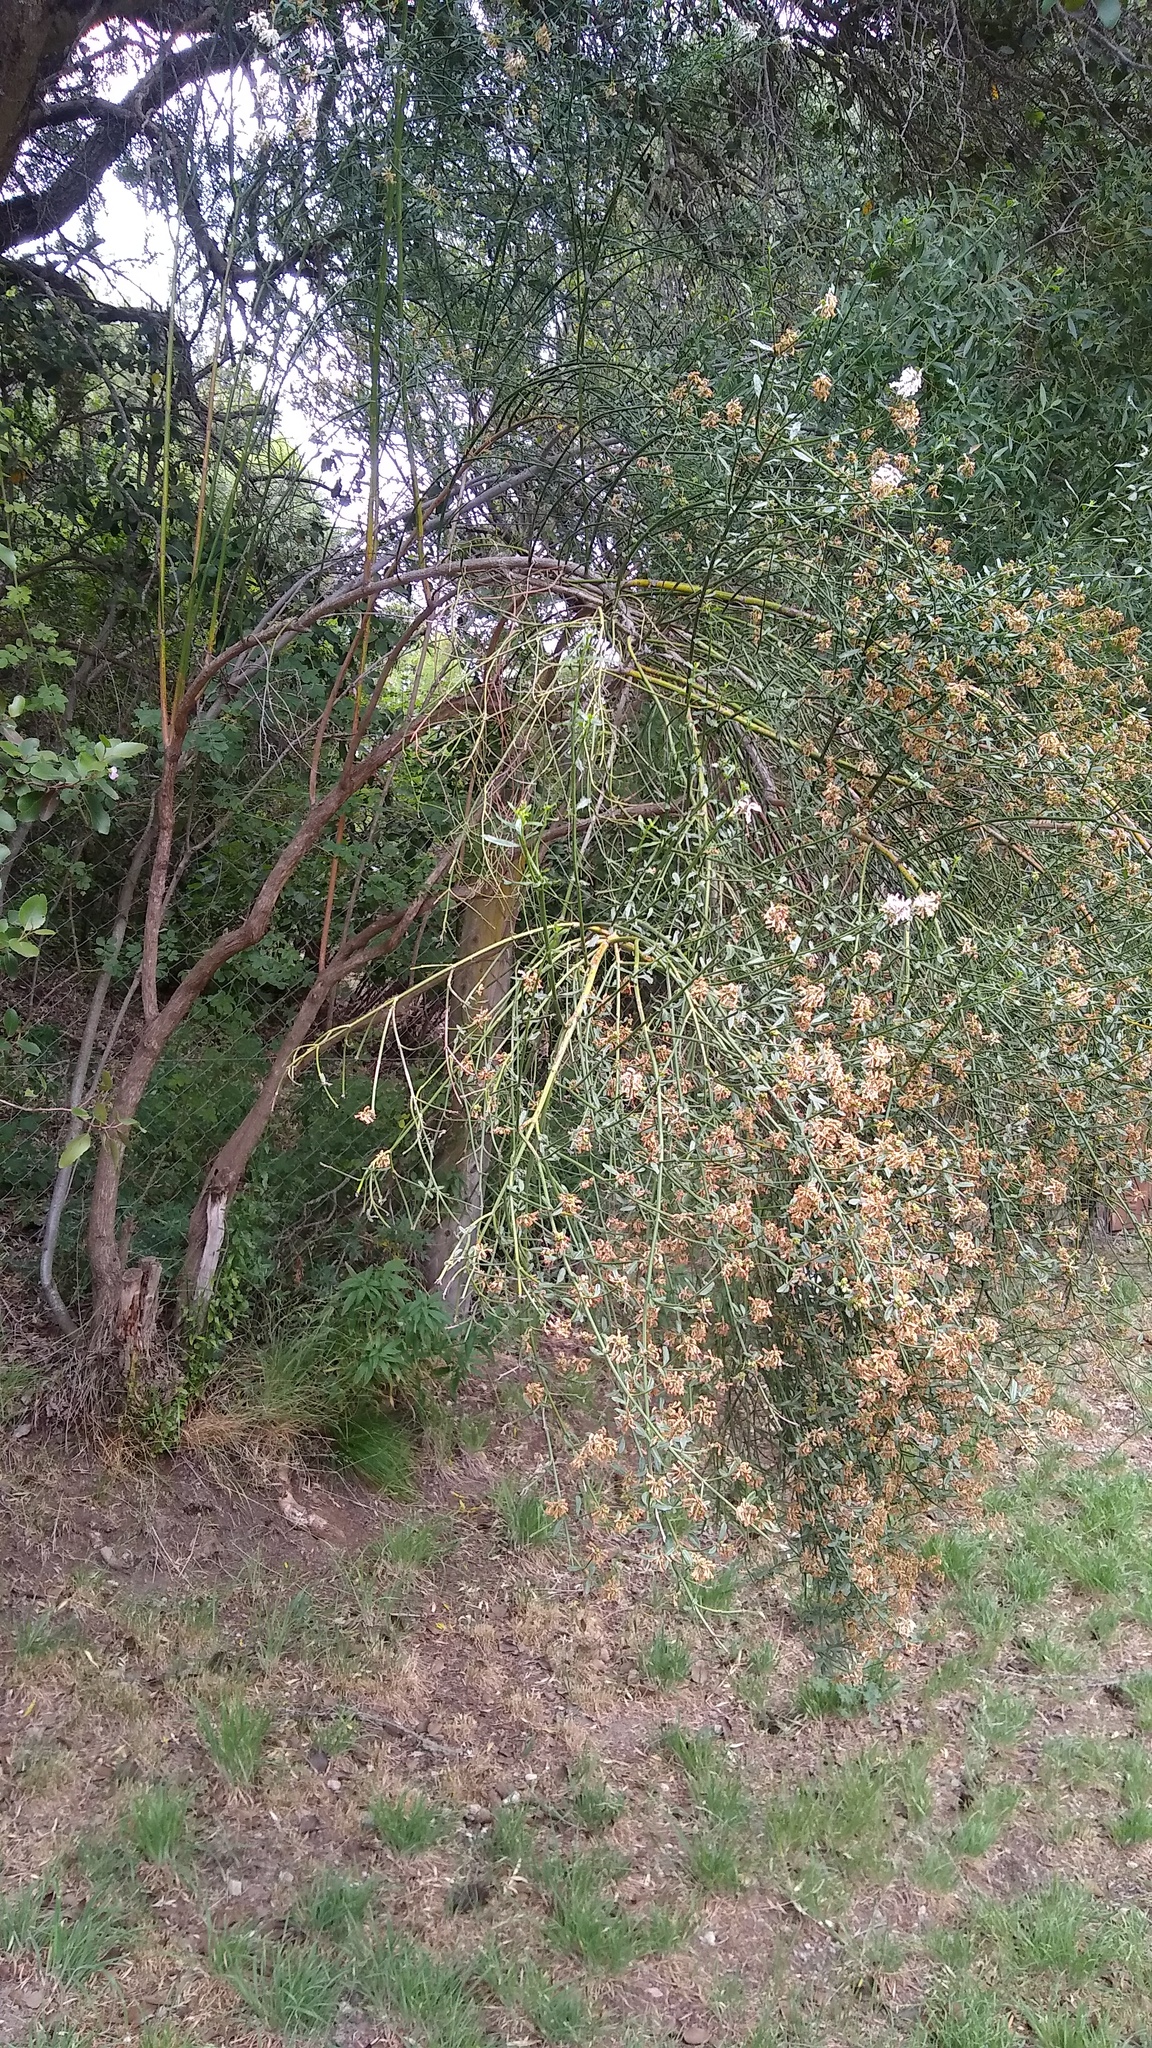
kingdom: Plantae
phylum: Tracheophyta
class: Magnoliopsida
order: Lamiales
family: Verbenaceae
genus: Diostea
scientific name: Diostea juncea
